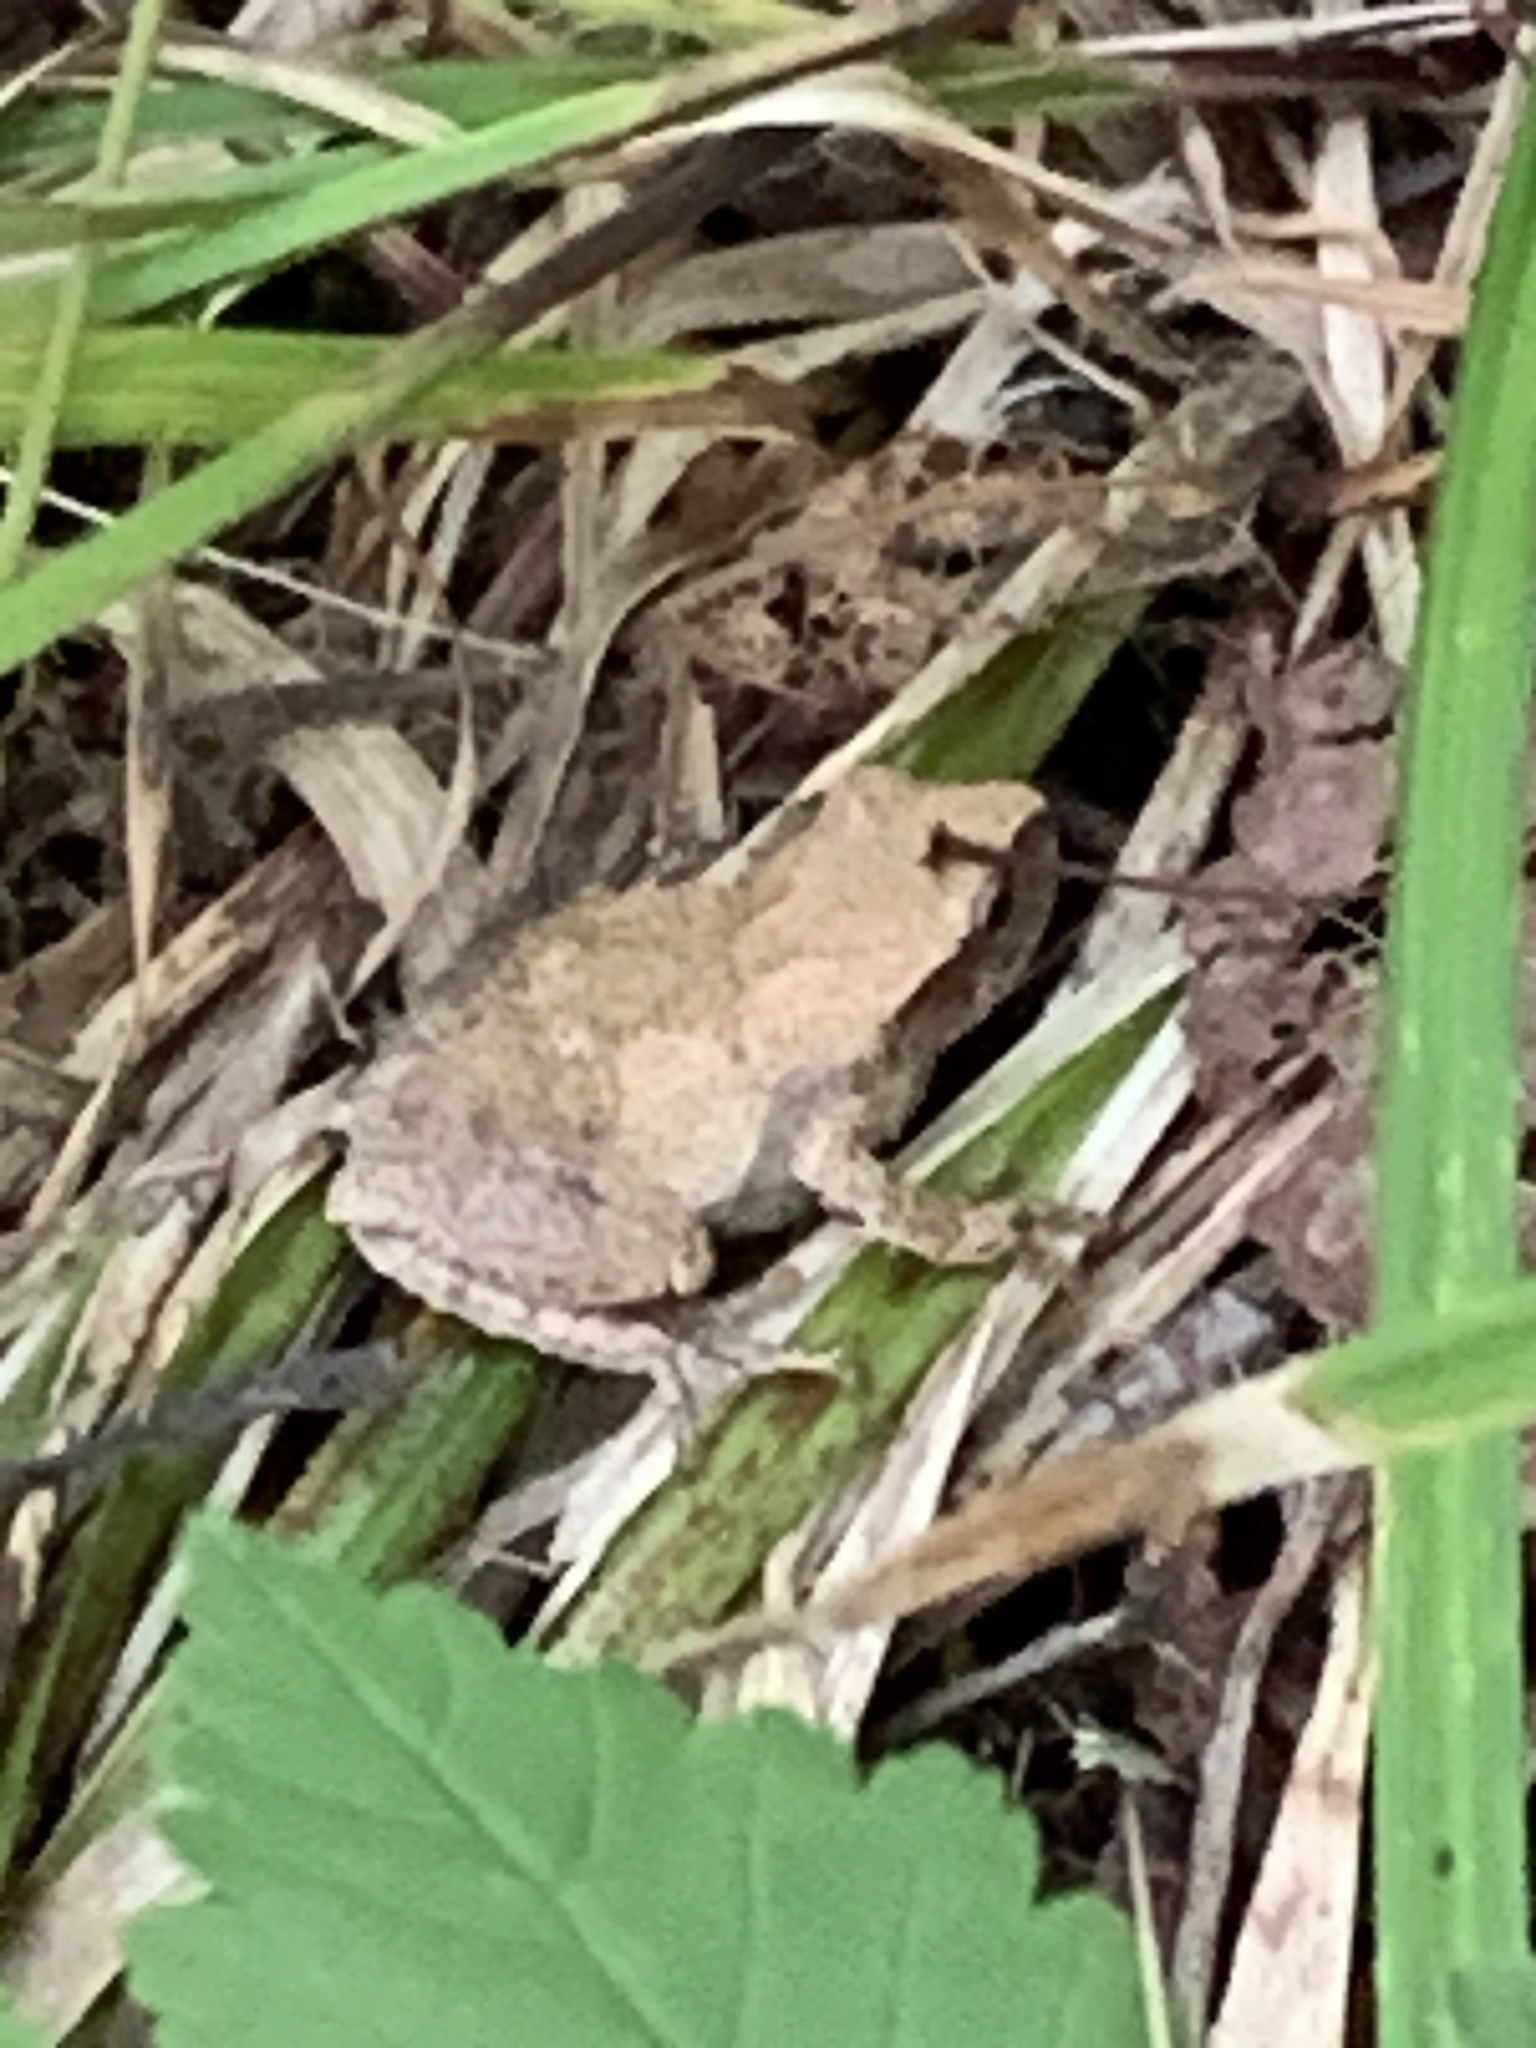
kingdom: Animalia
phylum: Chordata
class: Amphibia
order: Anura
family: Hylidae
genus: Pseudacris
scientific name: Pseudacris crucifer
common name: Spring peeper
